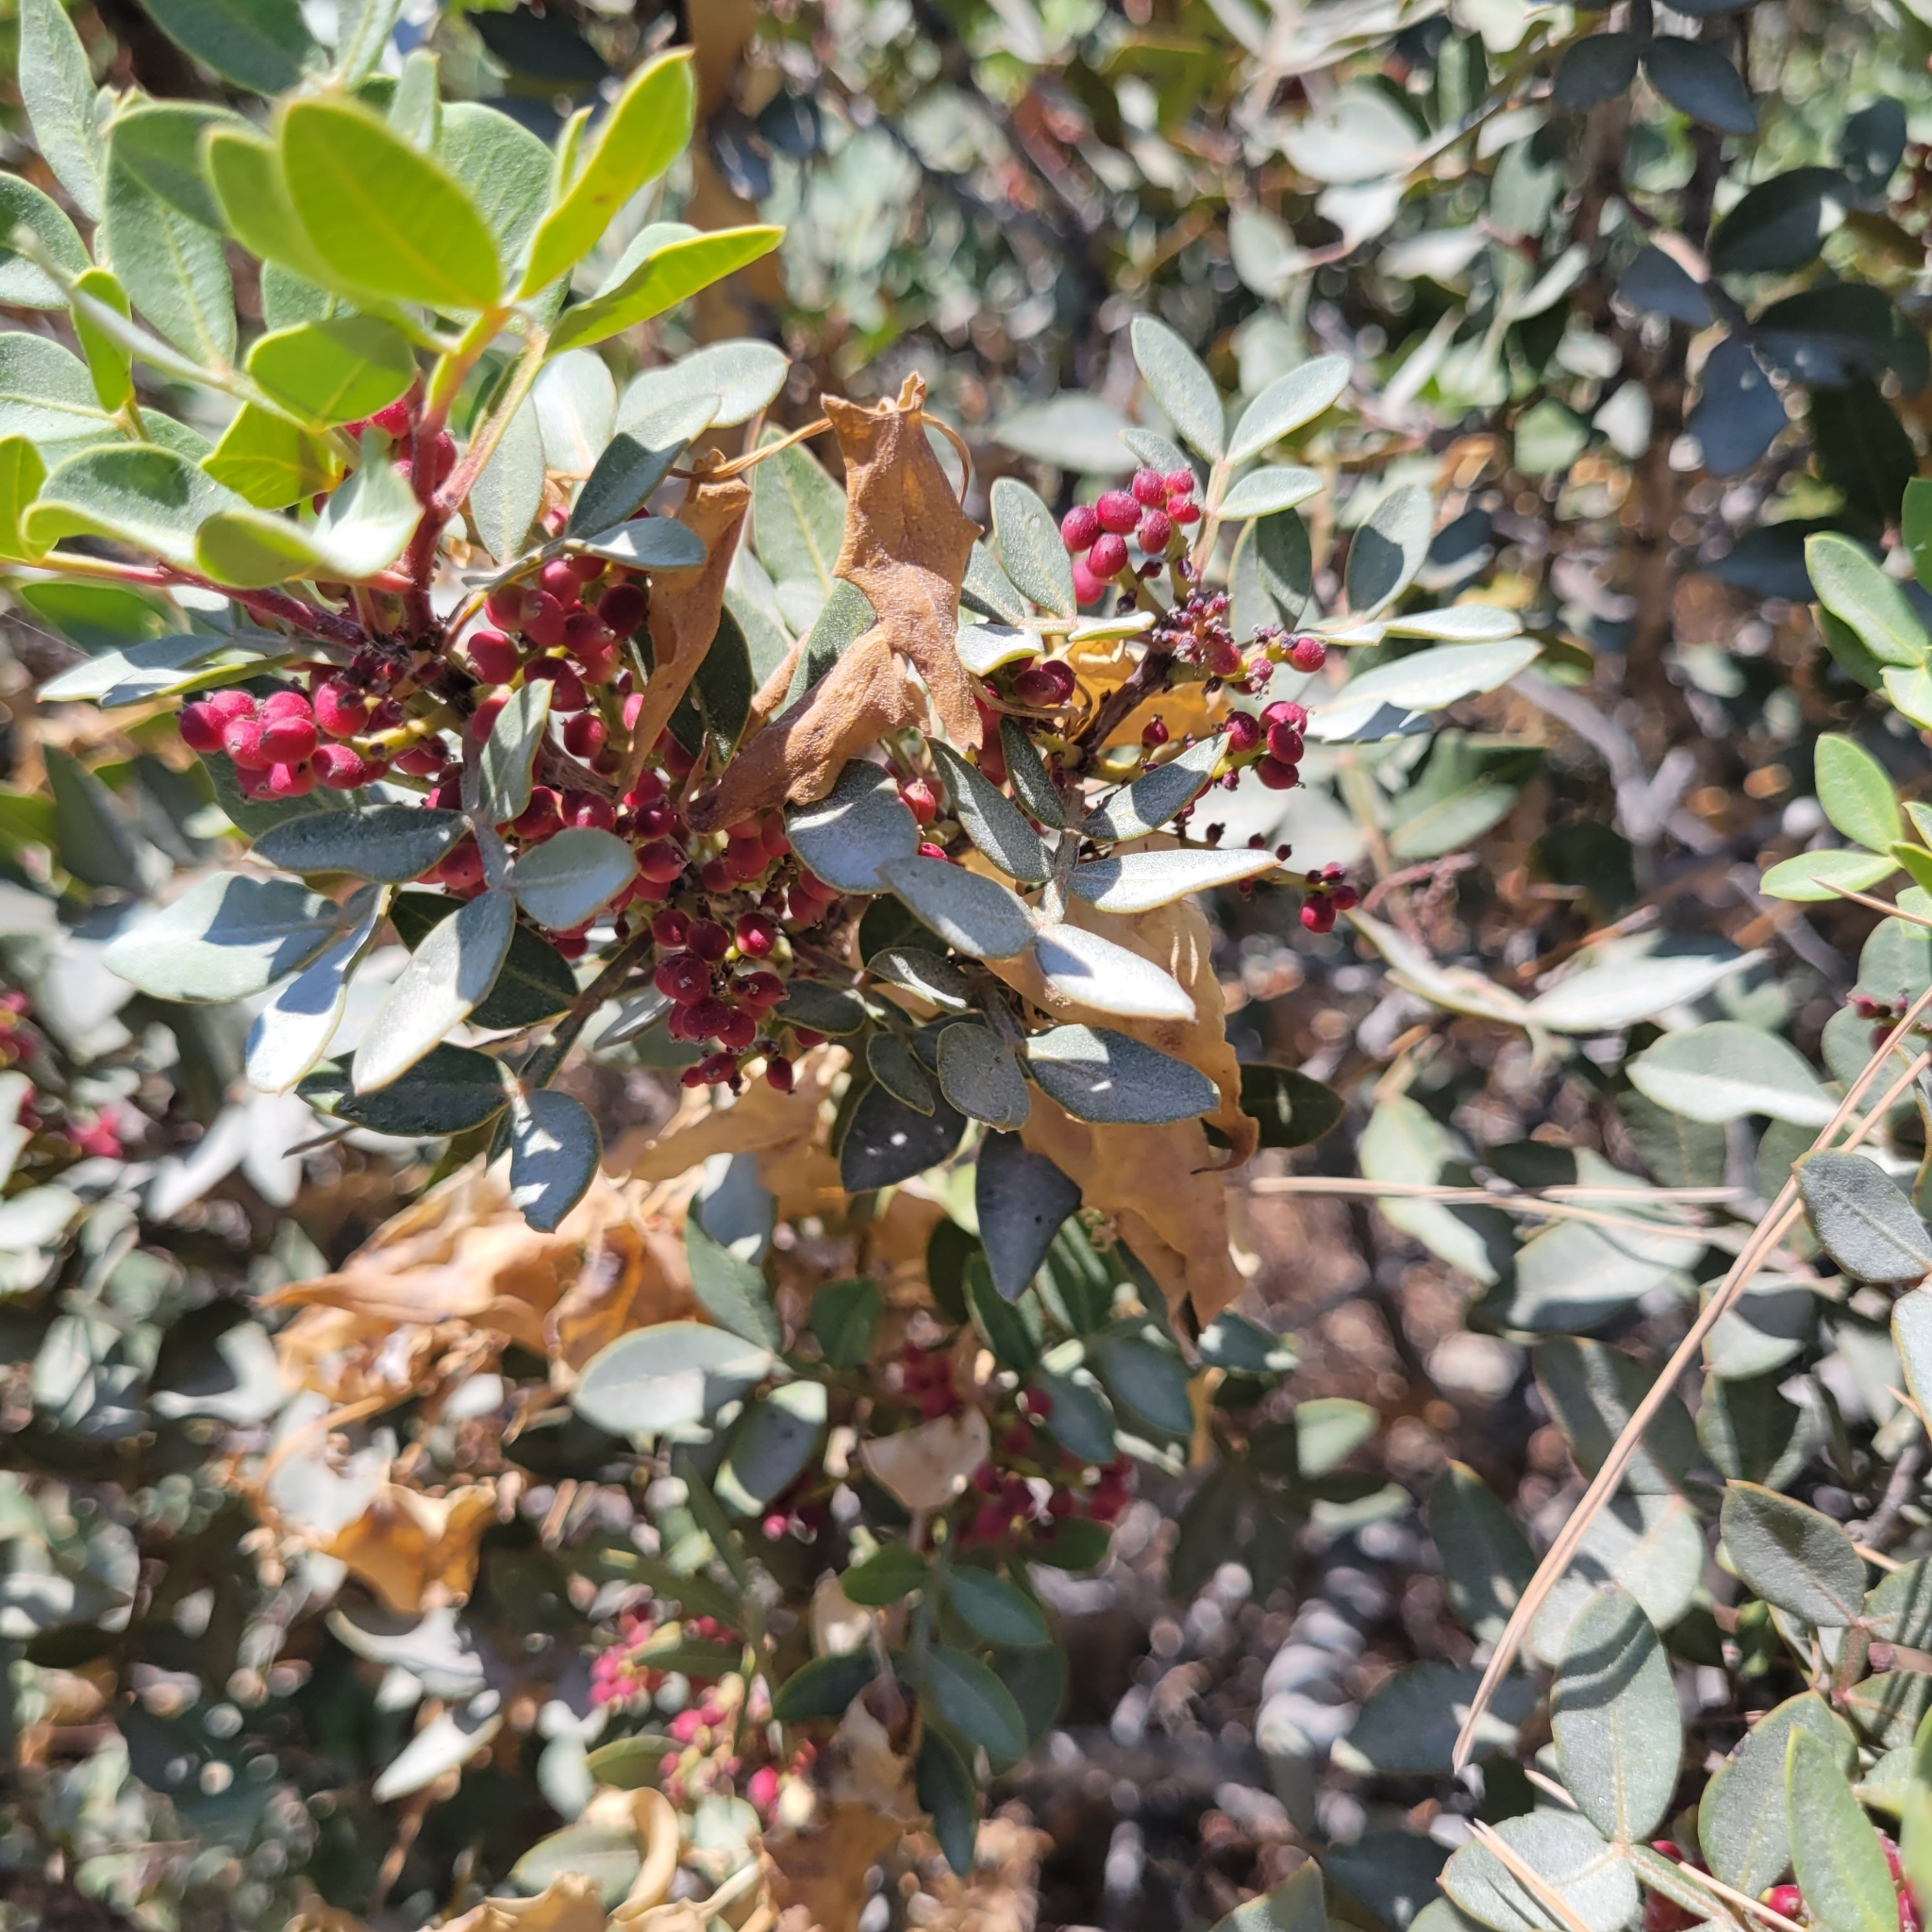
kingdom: Plantae
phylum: Tracheophyta
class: Magnoliopsida
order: Sapindales
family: Anacardiaceae
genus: Pistacia
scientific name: Pistacia lentiscus
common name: Lentisk
